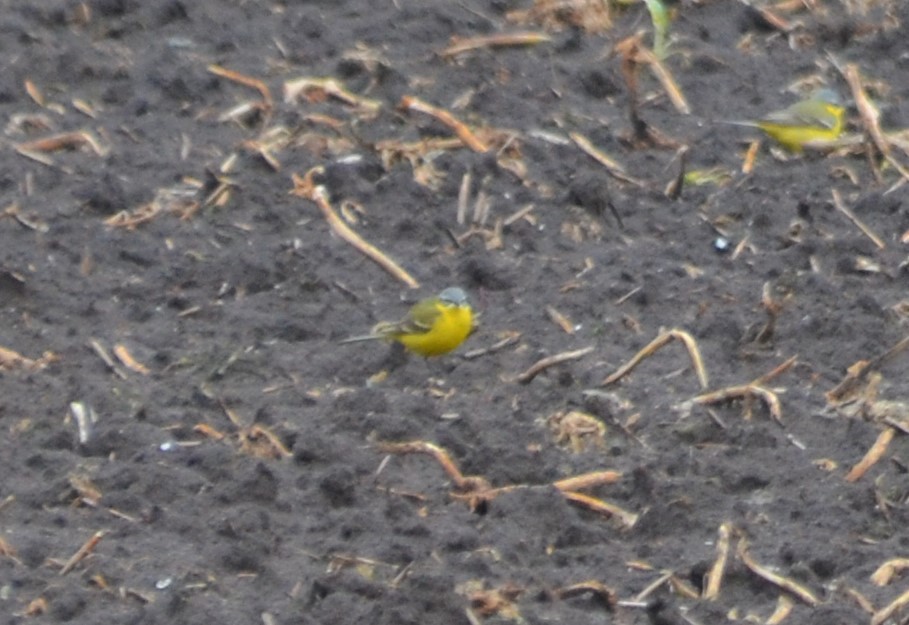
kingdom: Animalia
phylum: Chordata
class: Aves
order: Passeriformes
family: Motacillidae
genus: Motacilla
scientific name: Motacilla flava
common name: Western yellow wagtail
